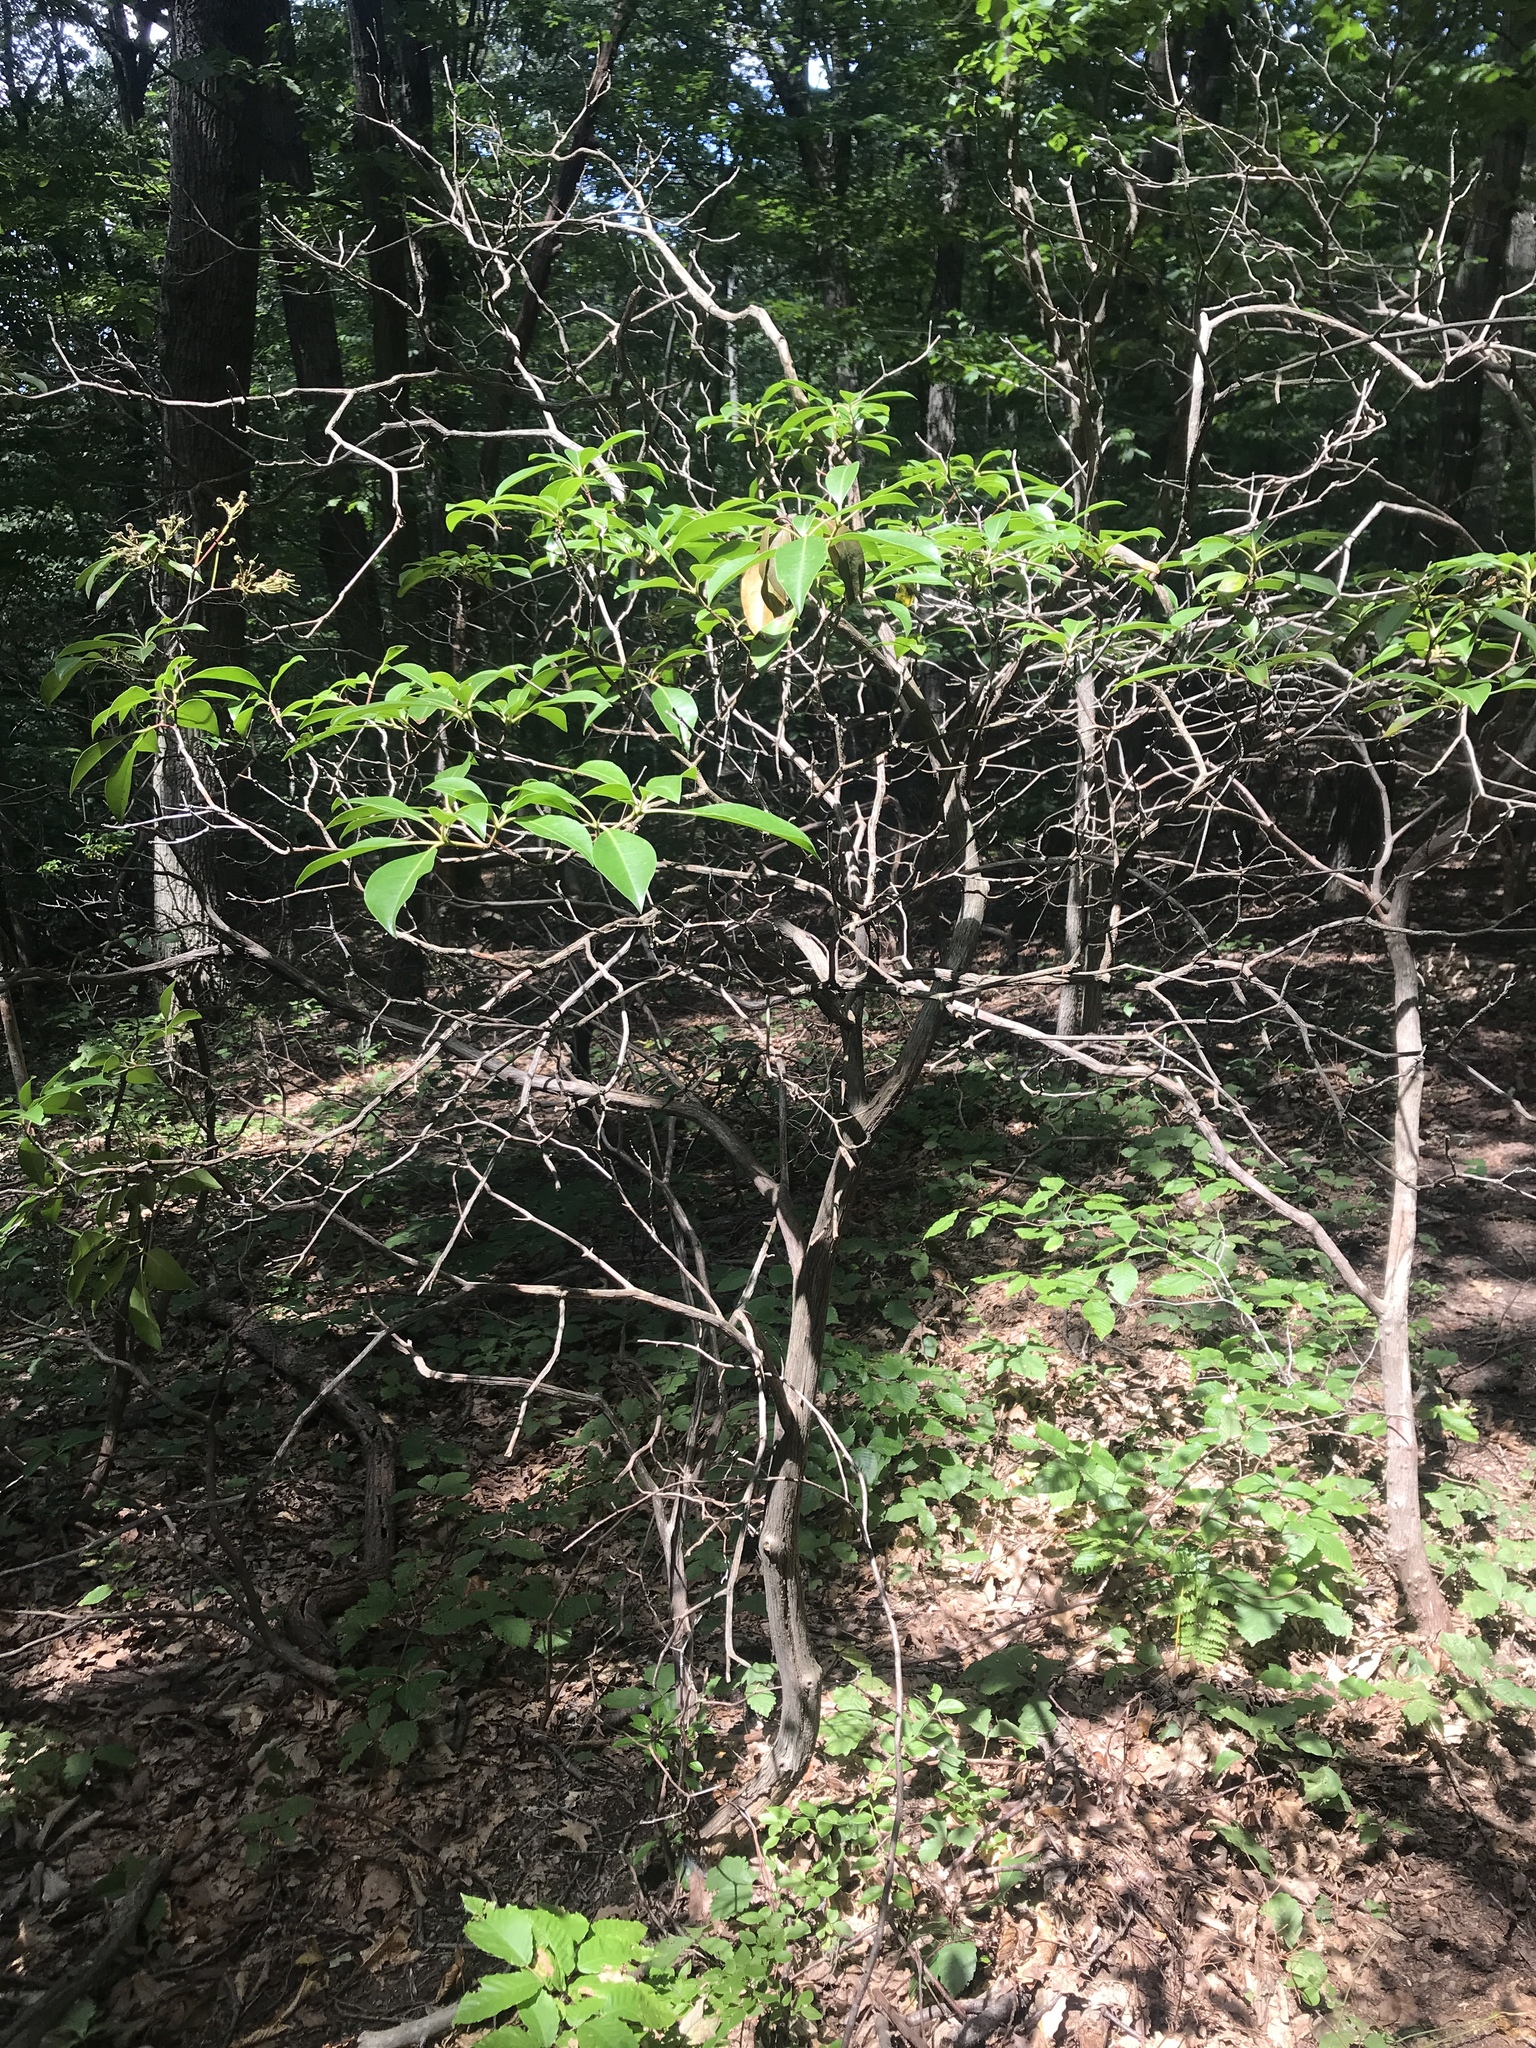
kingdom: Plantae
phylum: Tracheophyta
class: Magnoliopsida
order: Ericales
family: Ericaceae
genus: Kalmia
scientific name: Kalmia latifolia
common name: Mountain-laurel
